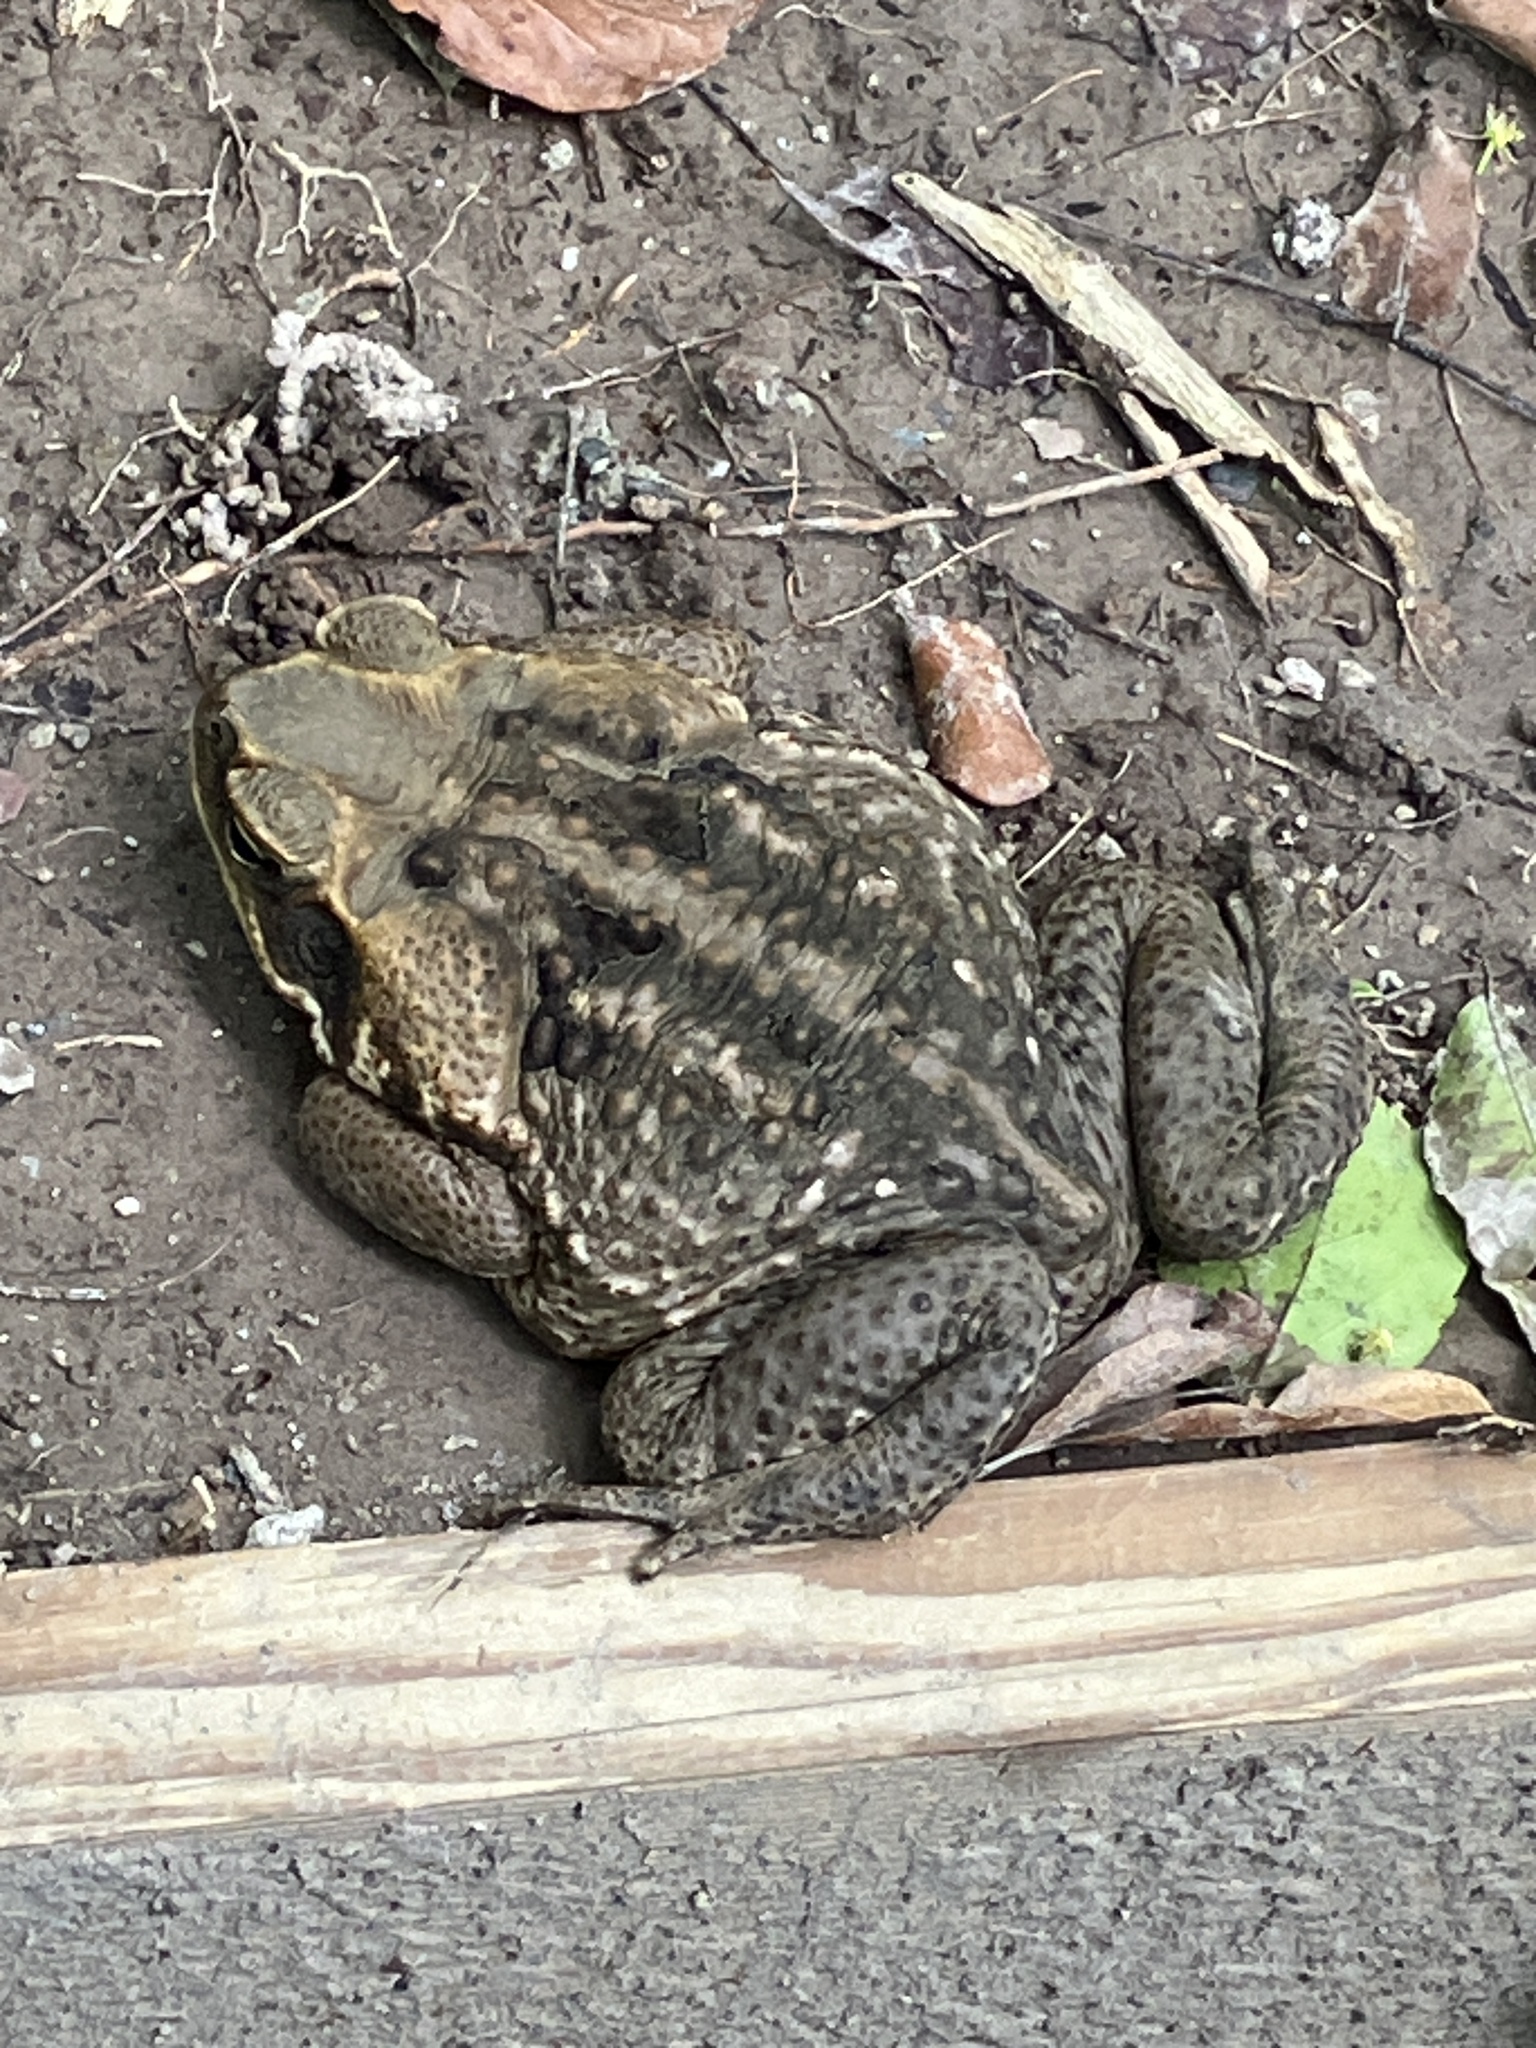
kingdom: Animalia
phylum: Chordata
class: Amphibia
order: Anura
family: Bufonidae
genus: Rhinella
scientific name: Rhinella marina
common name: Cane toad
